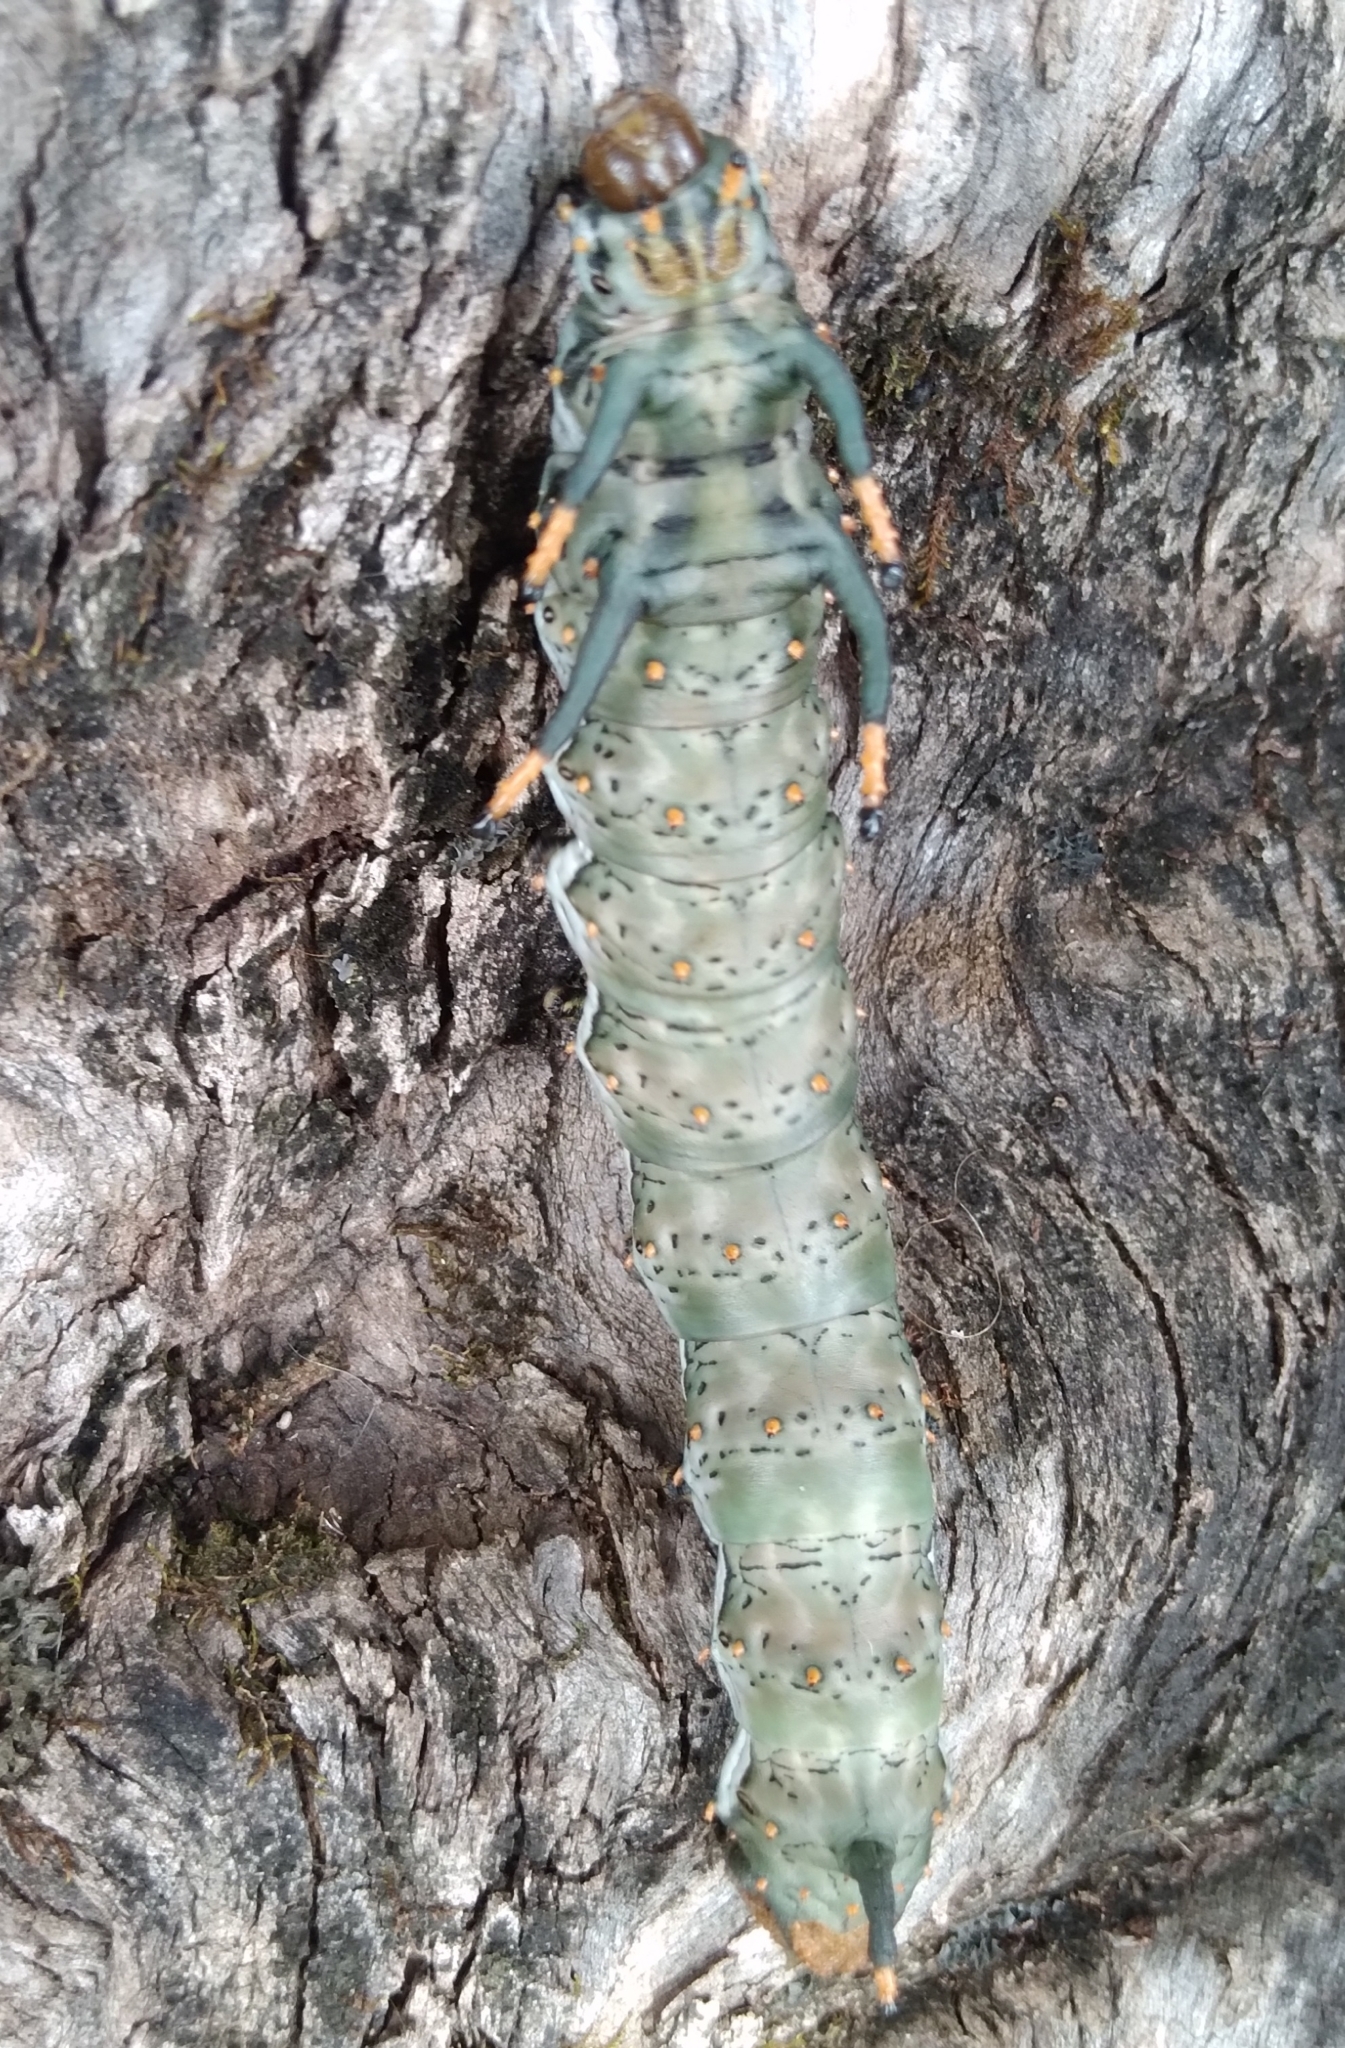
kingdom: Animalia
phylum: Arthropoda
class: Insecta
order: Lepidoptera
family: Saturniidae
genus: Citheronia
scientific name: Citheronia brissotii
